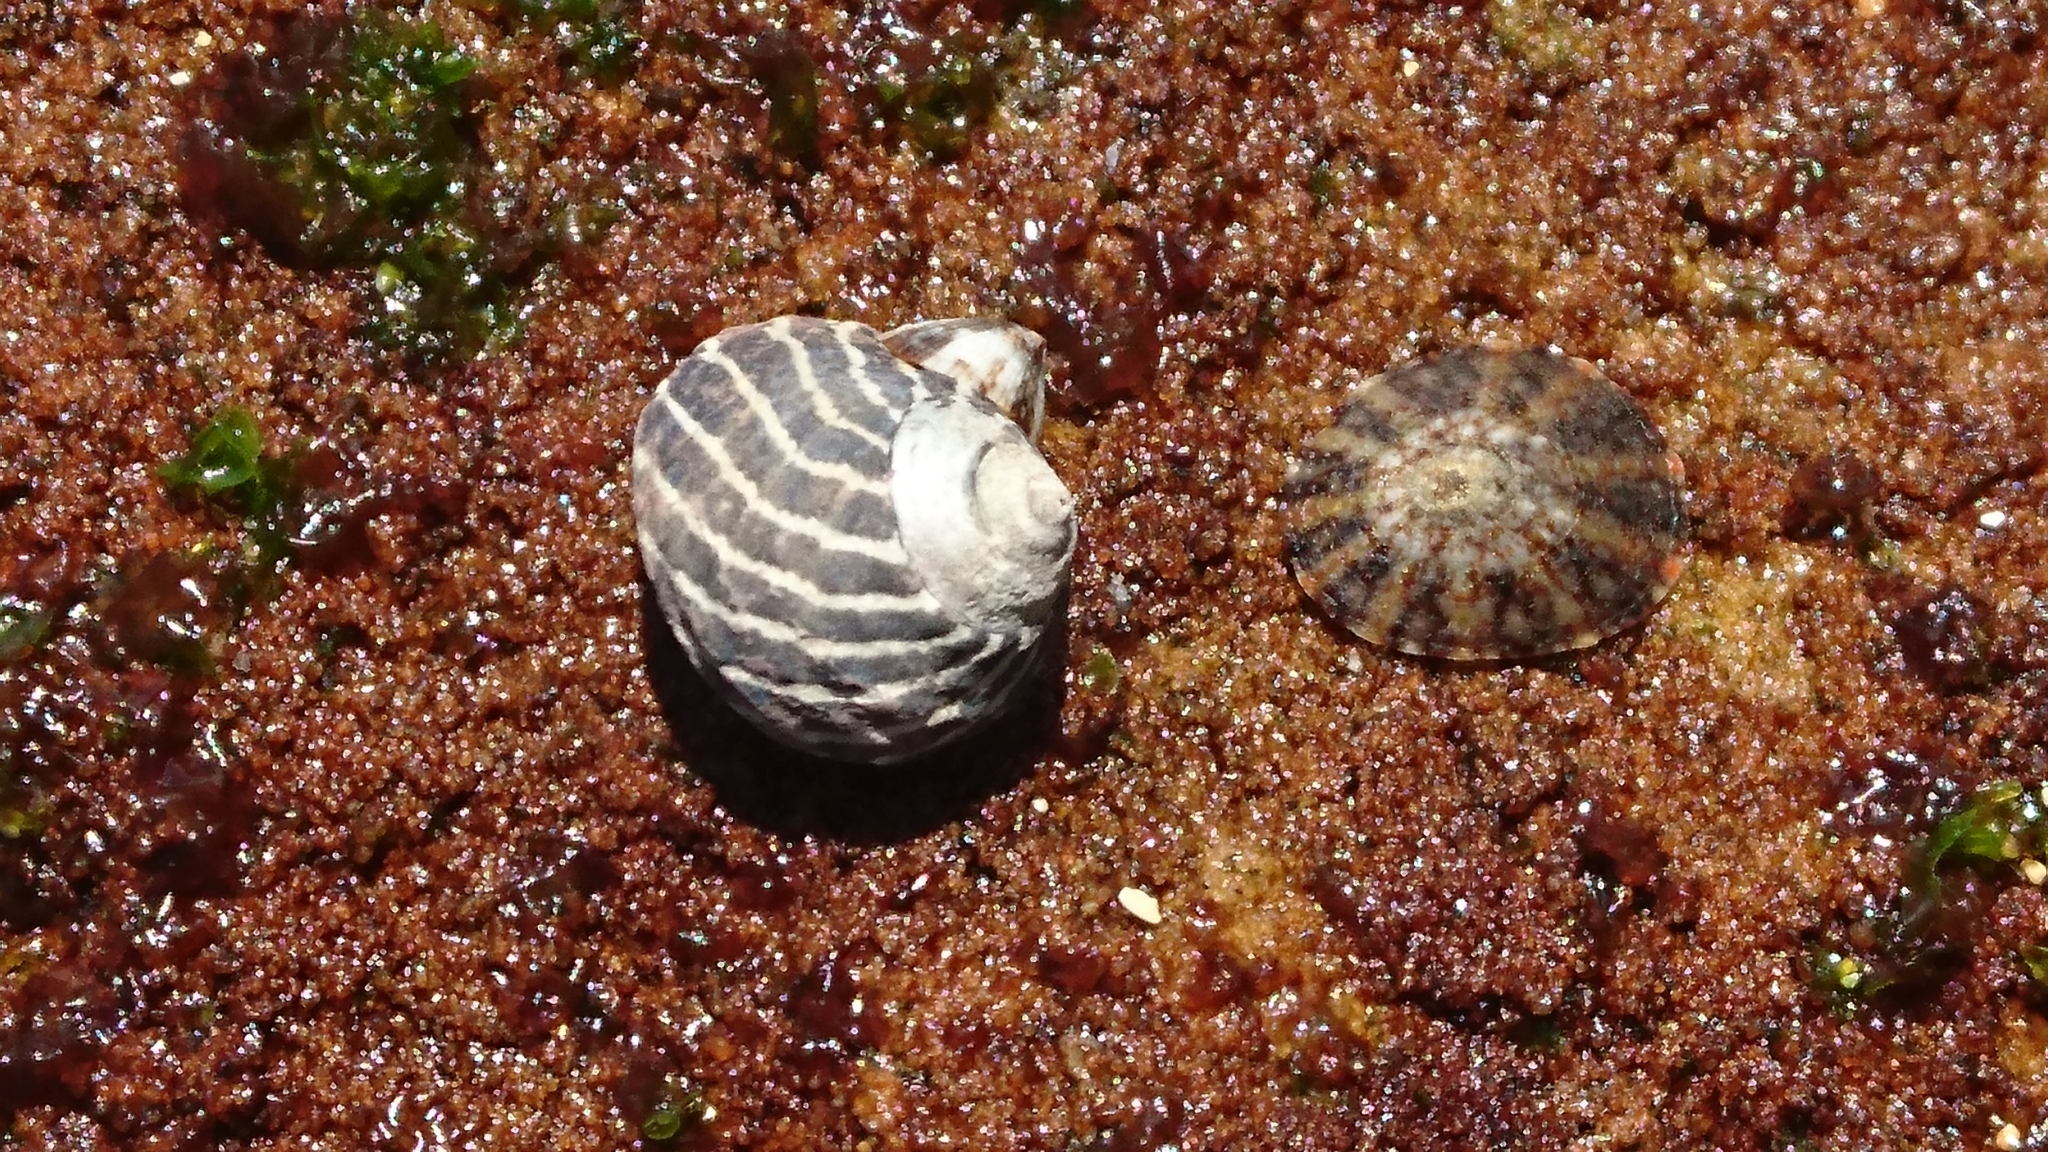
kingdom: Animalia
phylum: Mollusca
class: Gastropoda
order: Trochida
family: Trochidae
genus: Austrocochlea
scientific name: Austrocochlea porcata
